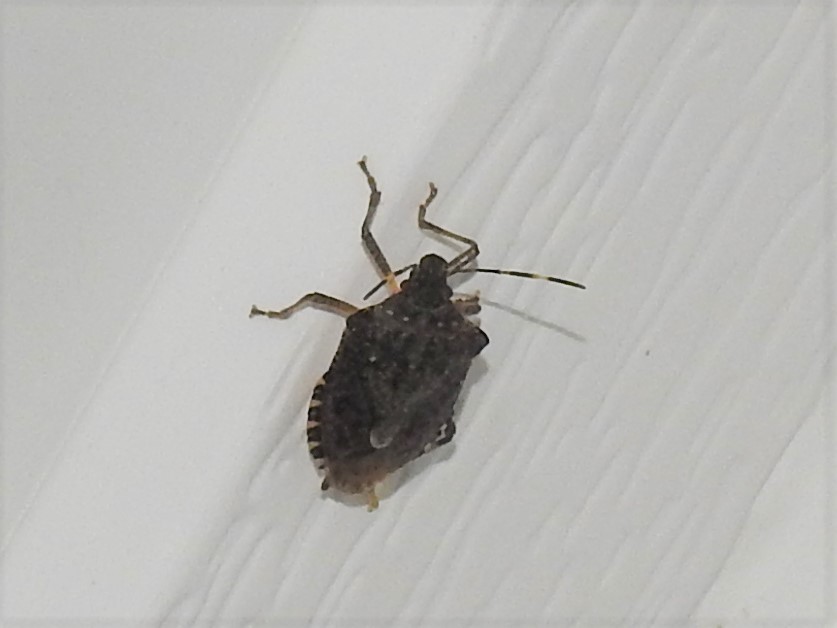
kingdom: Animalia
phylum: Arthropoda
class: Insecta
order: Hemiptera
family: Pentatomidae
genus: Halyomorpha
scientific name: Halyomorpha halys
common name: Brown marmorated stink bug
